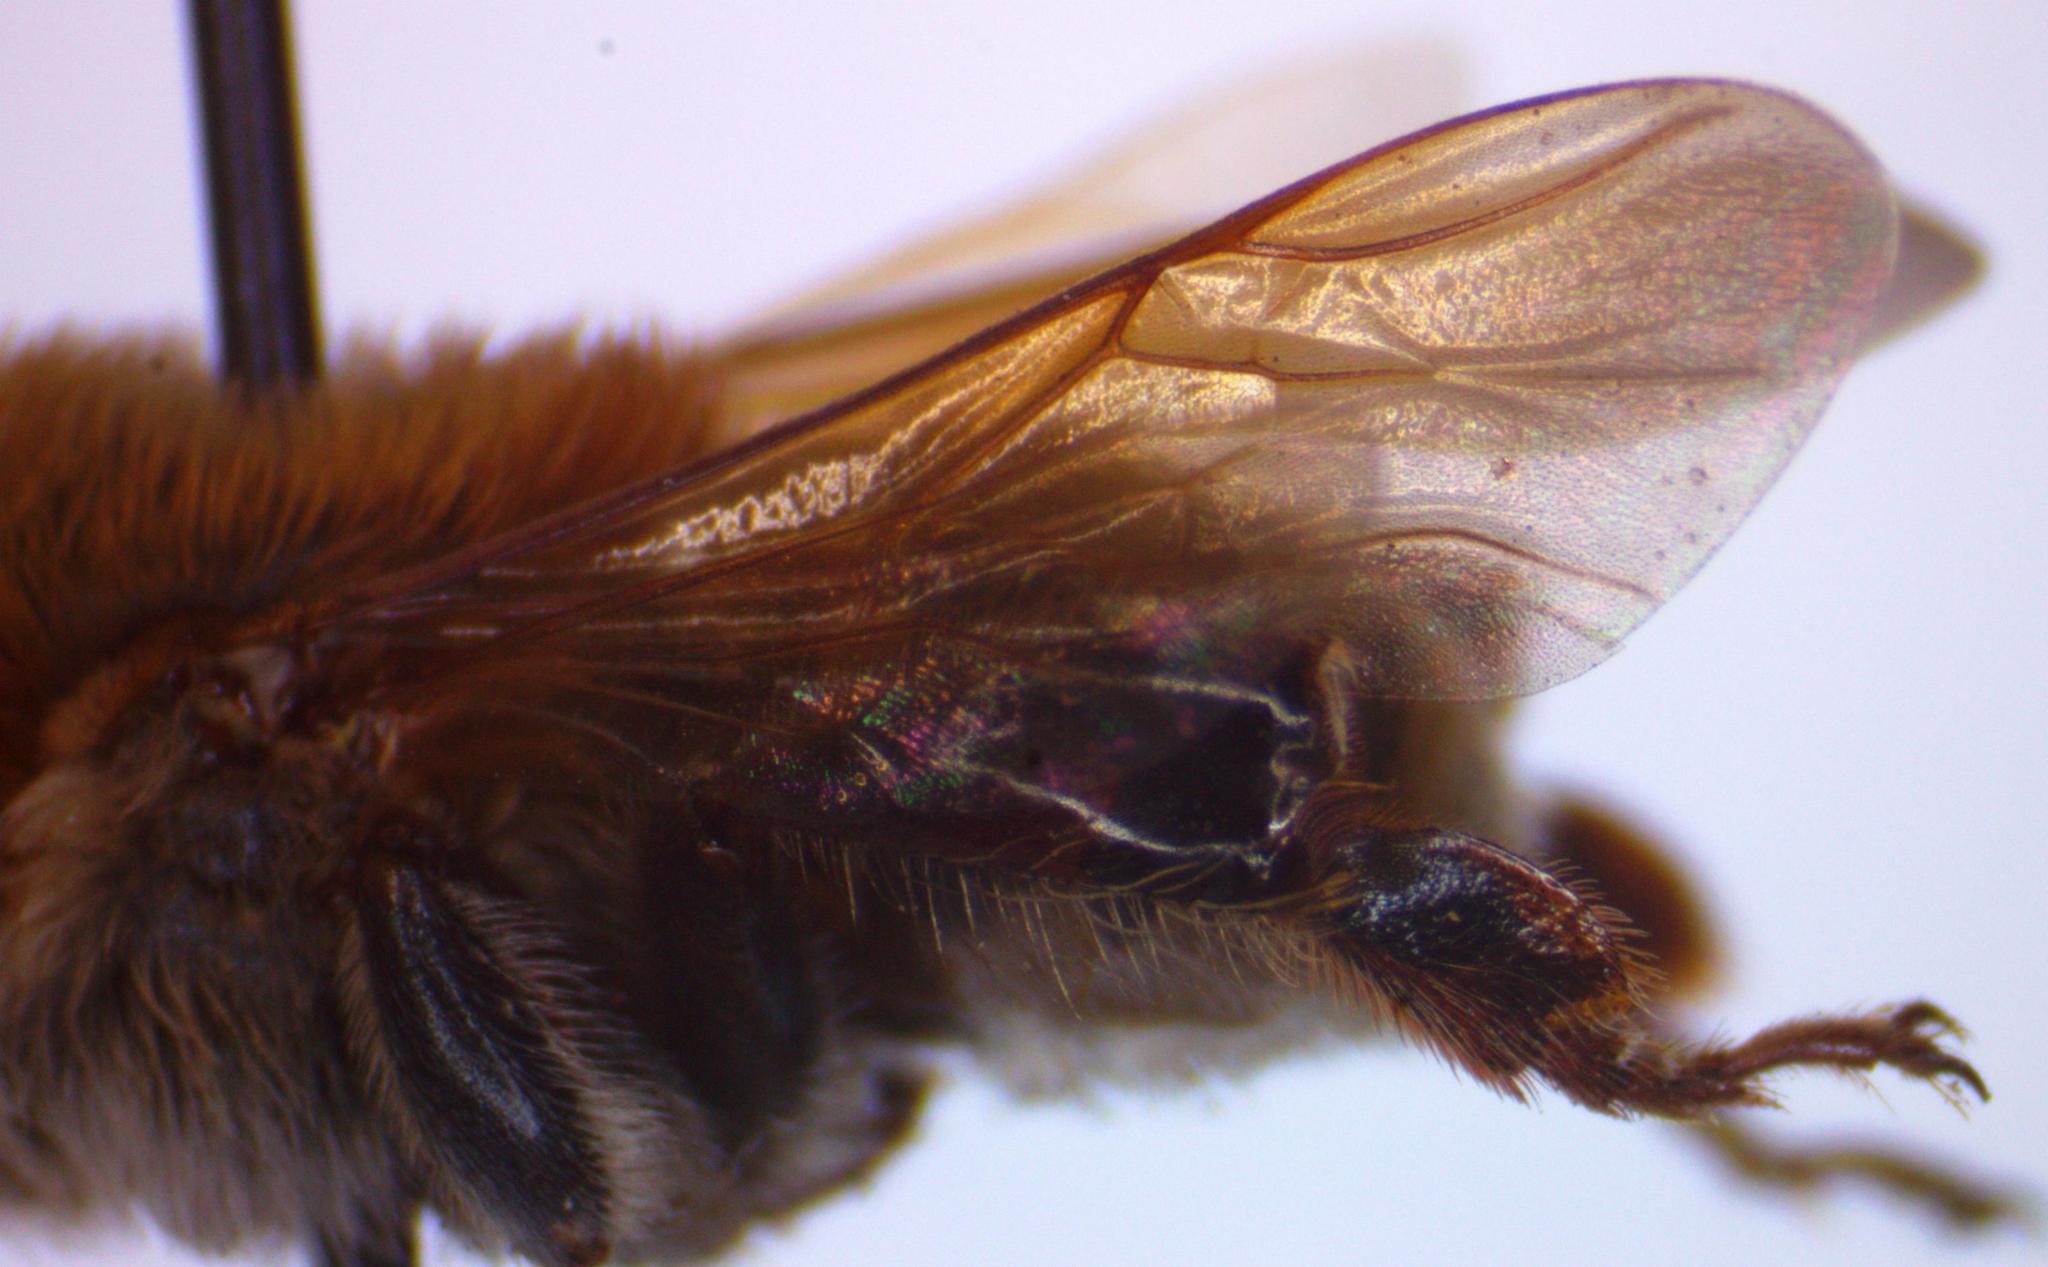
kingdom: Animalia
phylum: Arthropoda
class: Insecta
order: Hymenoptera
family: Apidae
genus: Melipona
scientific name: Melipona beecheii
